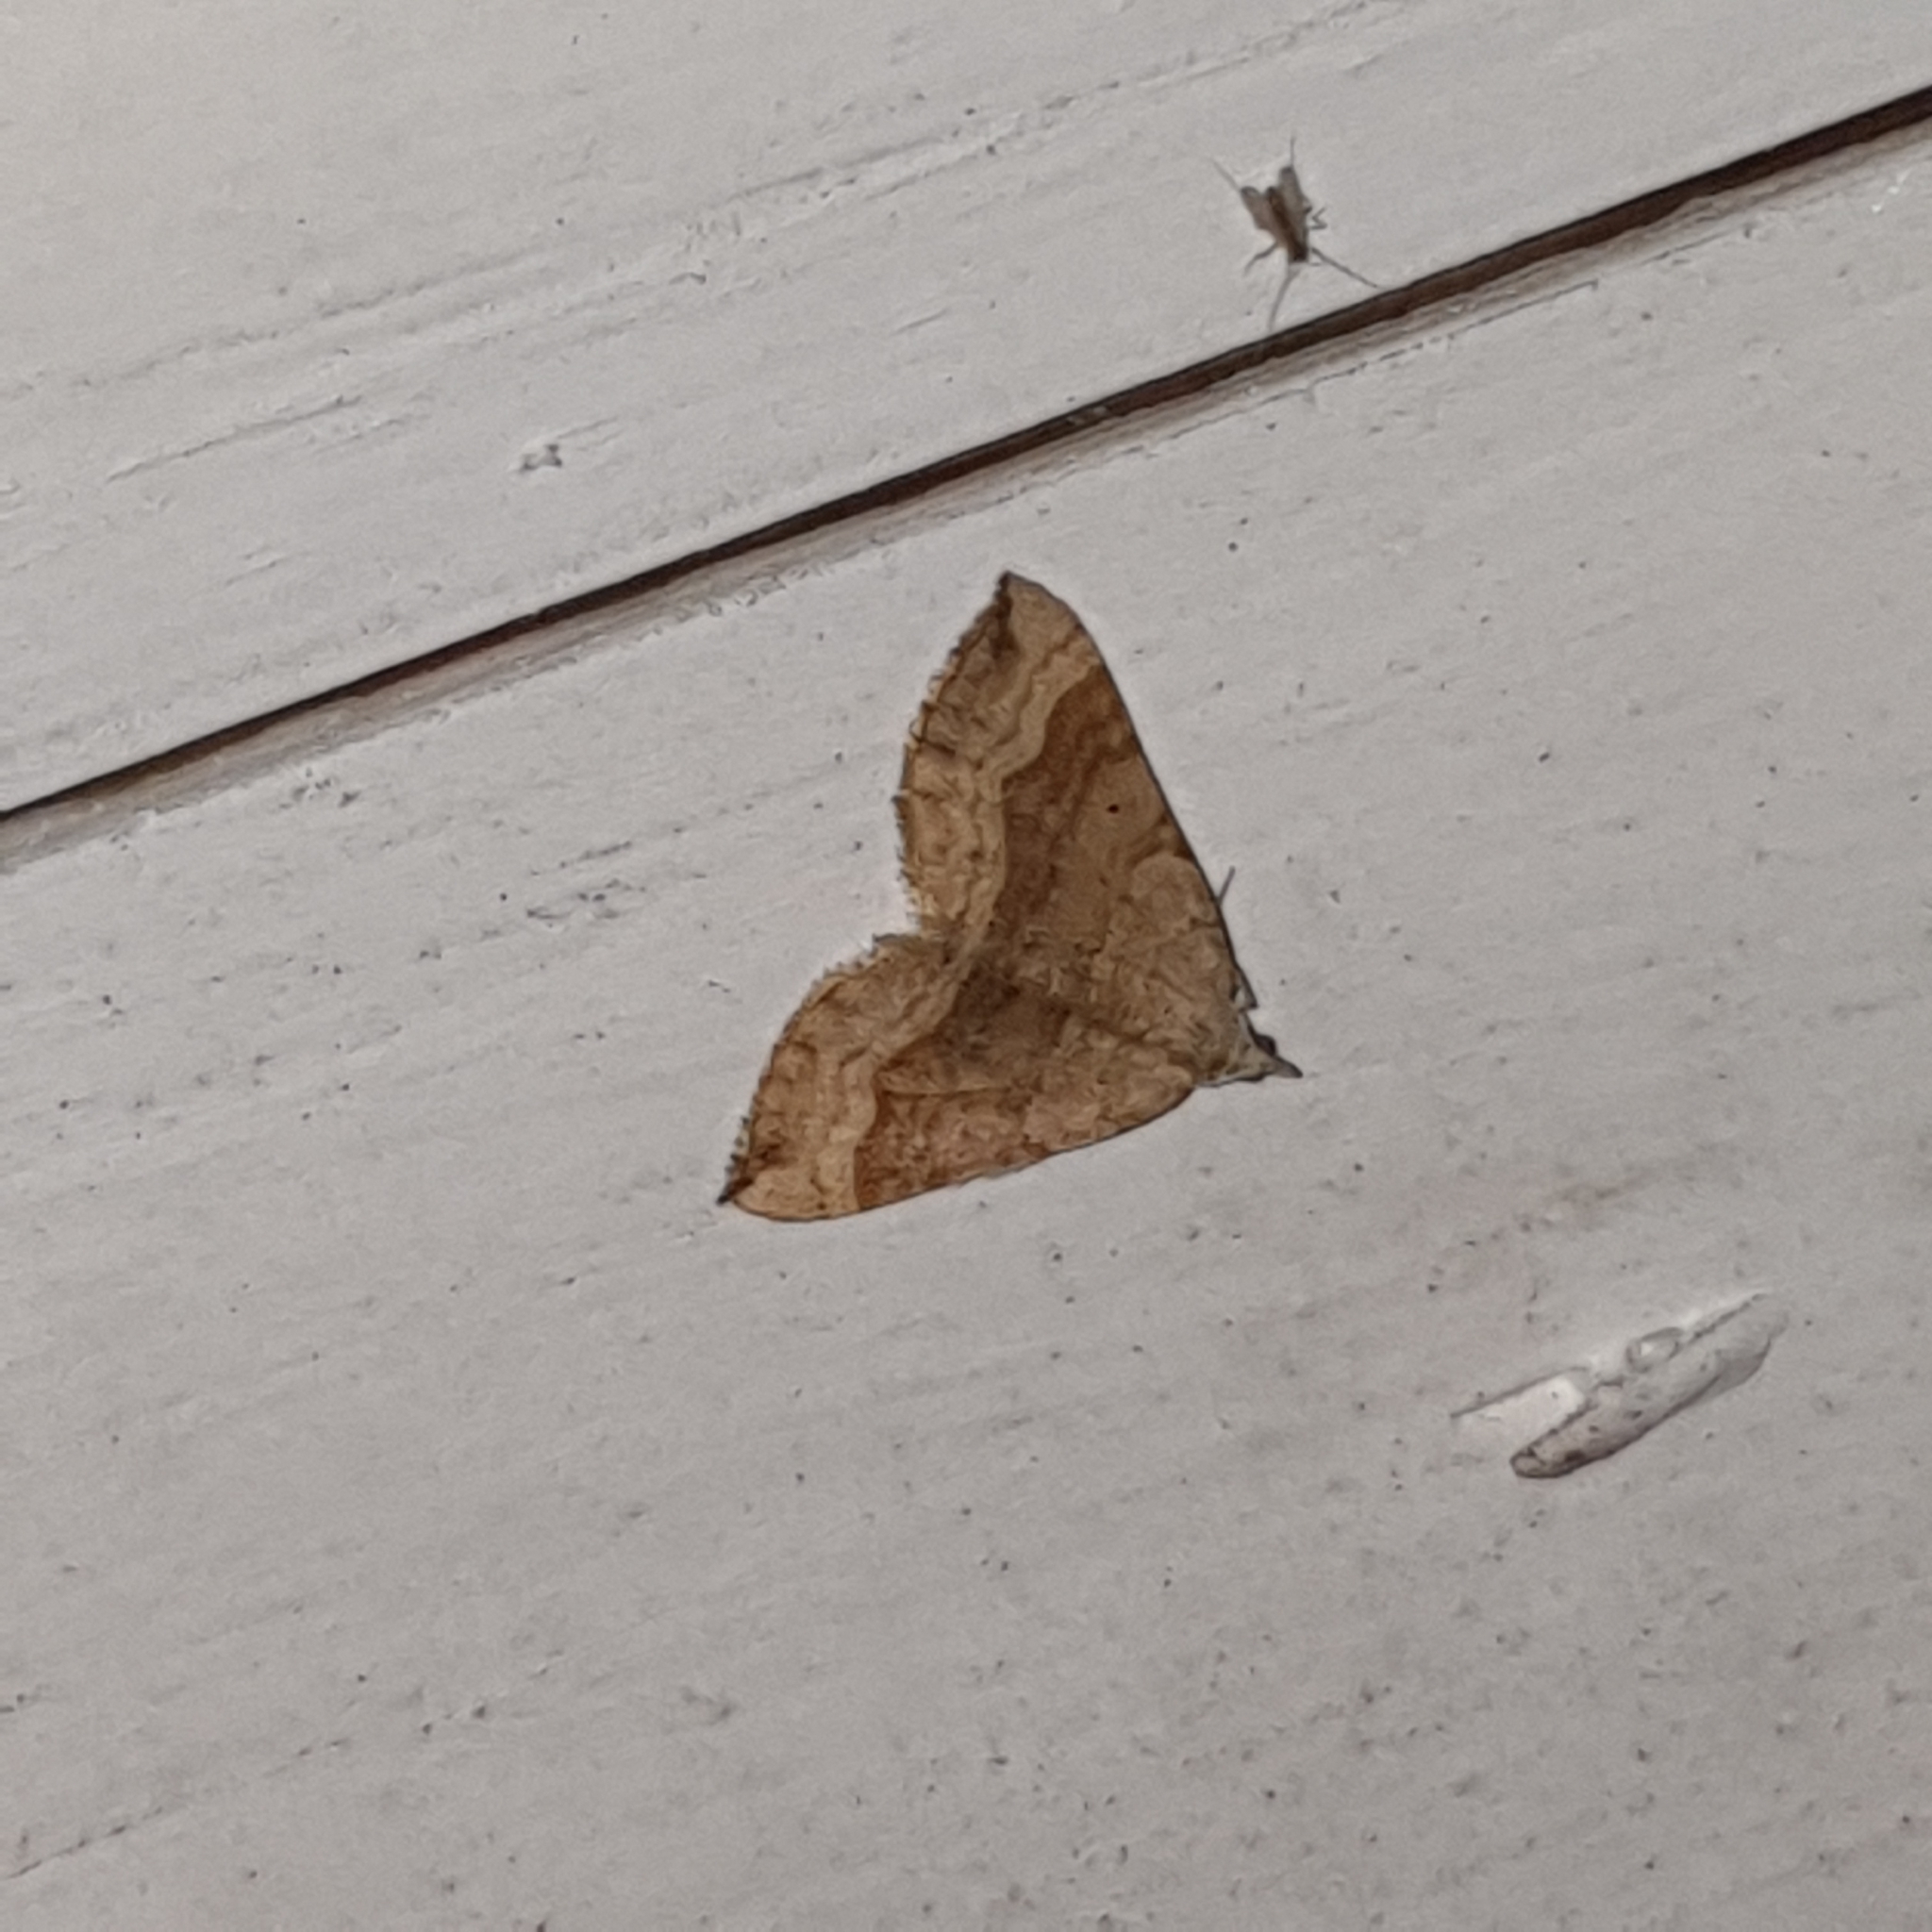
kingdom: Animalia
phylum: Arthropoda
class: Insecta
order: Lepidoptera
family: Geometridae
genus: Scotopteryx
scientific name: Scotopteryx chenopodiata
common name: Shaded broad-bar
